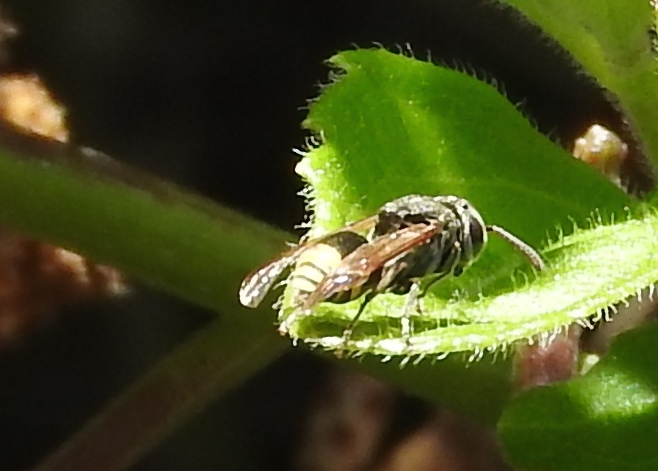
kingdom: Animalia
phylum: Arthropoda
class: Insecta
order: Hymenoptera
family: Vespidae
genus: Brachygastra
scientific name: Brachygastra azteca
